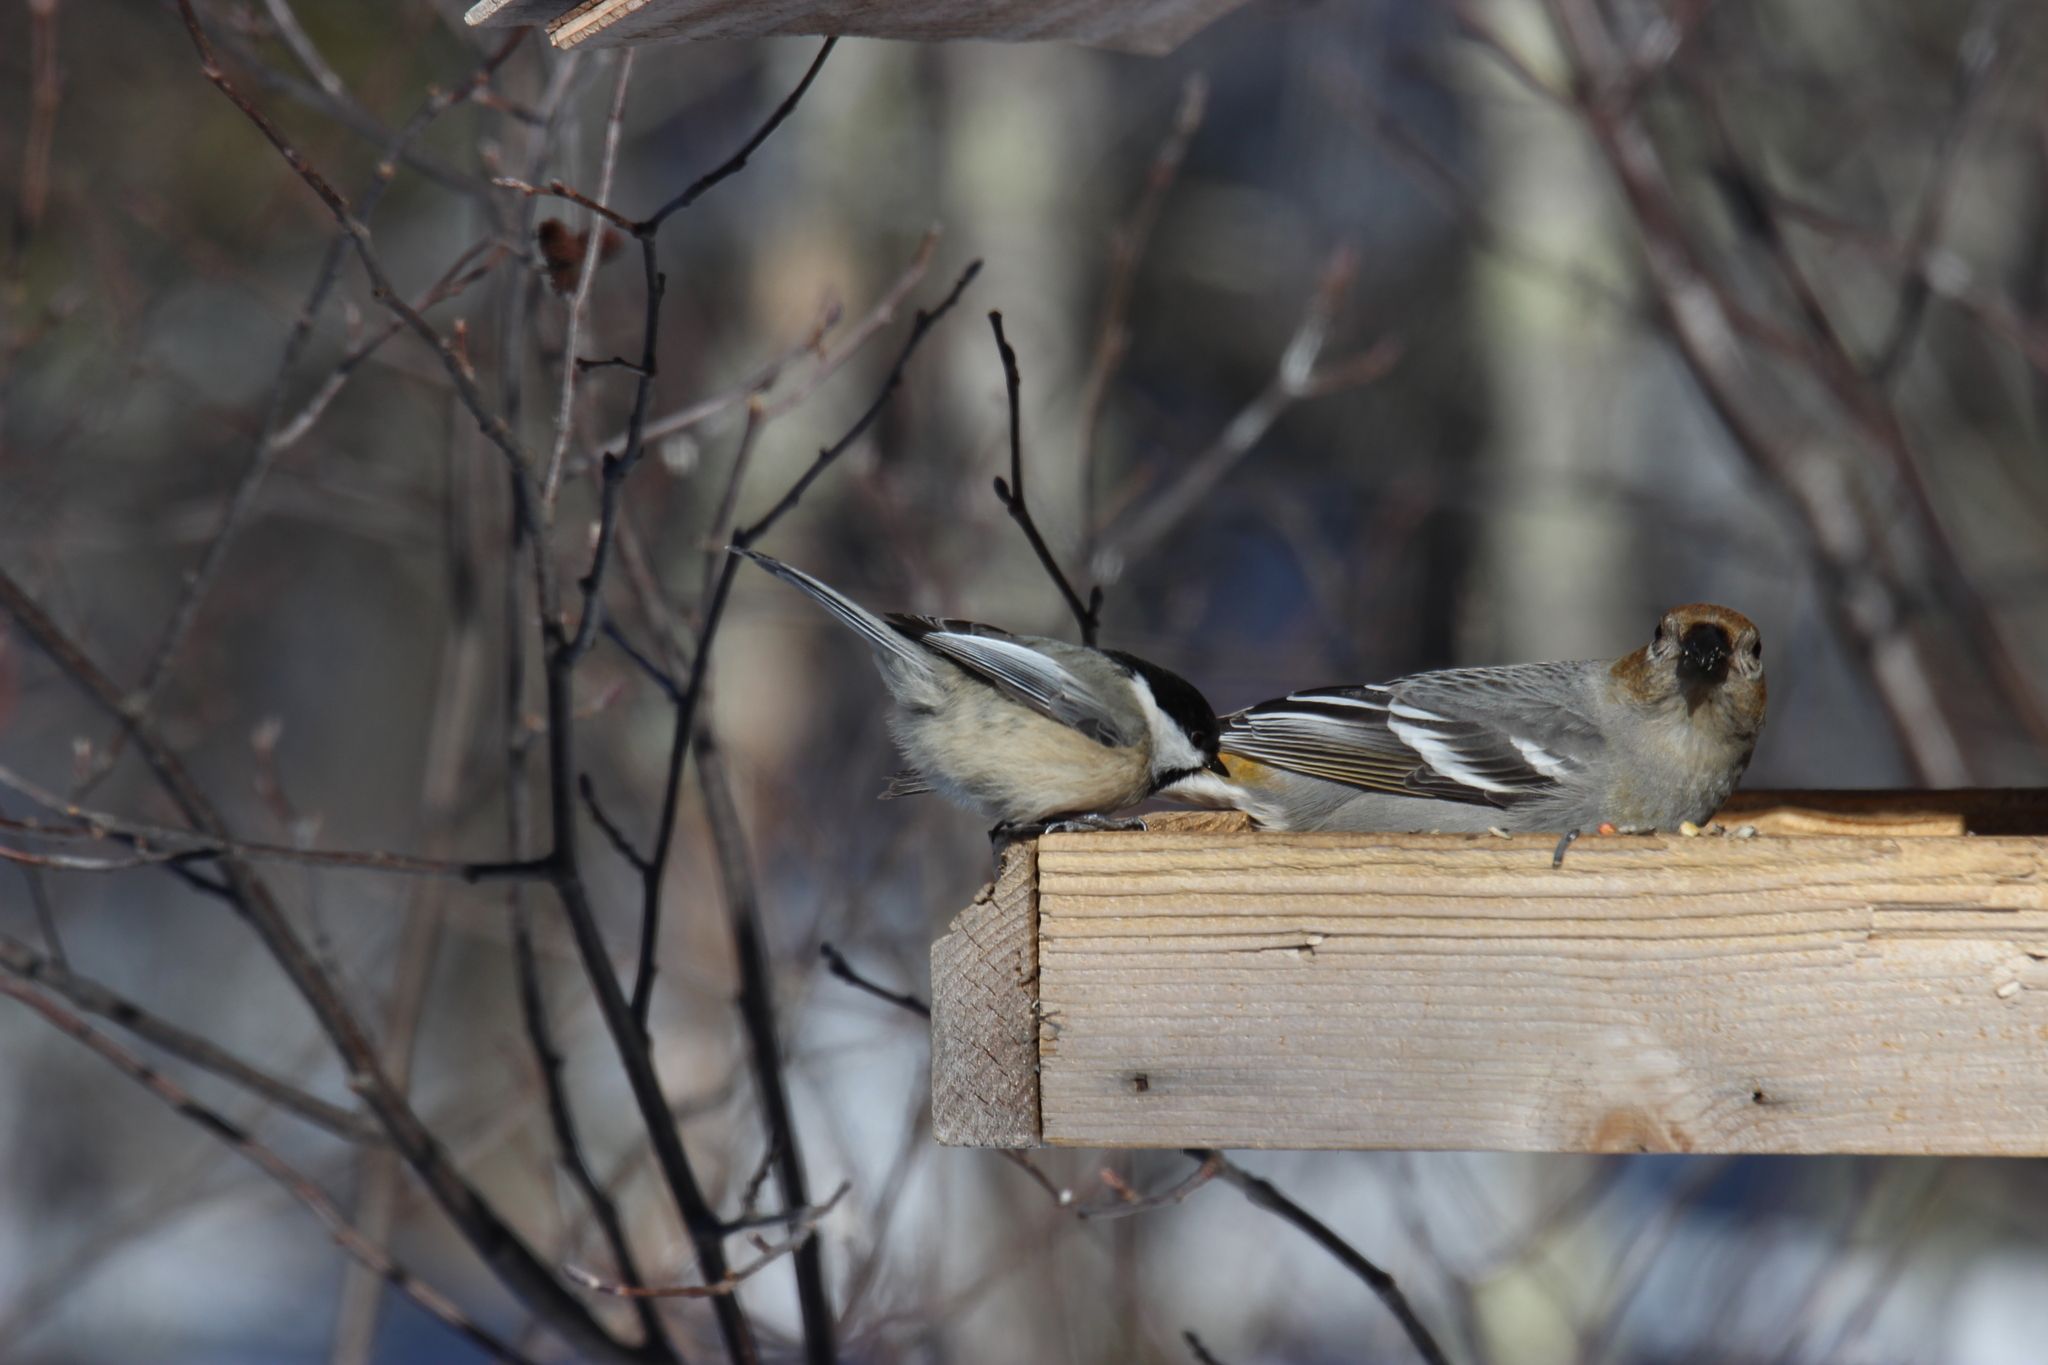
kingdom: Animalia
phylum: Chordata
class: Aves
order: Passeriformes
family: Paridae
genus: Poecile
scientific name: Poecile atricapillus
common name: Black-capped chickadee
